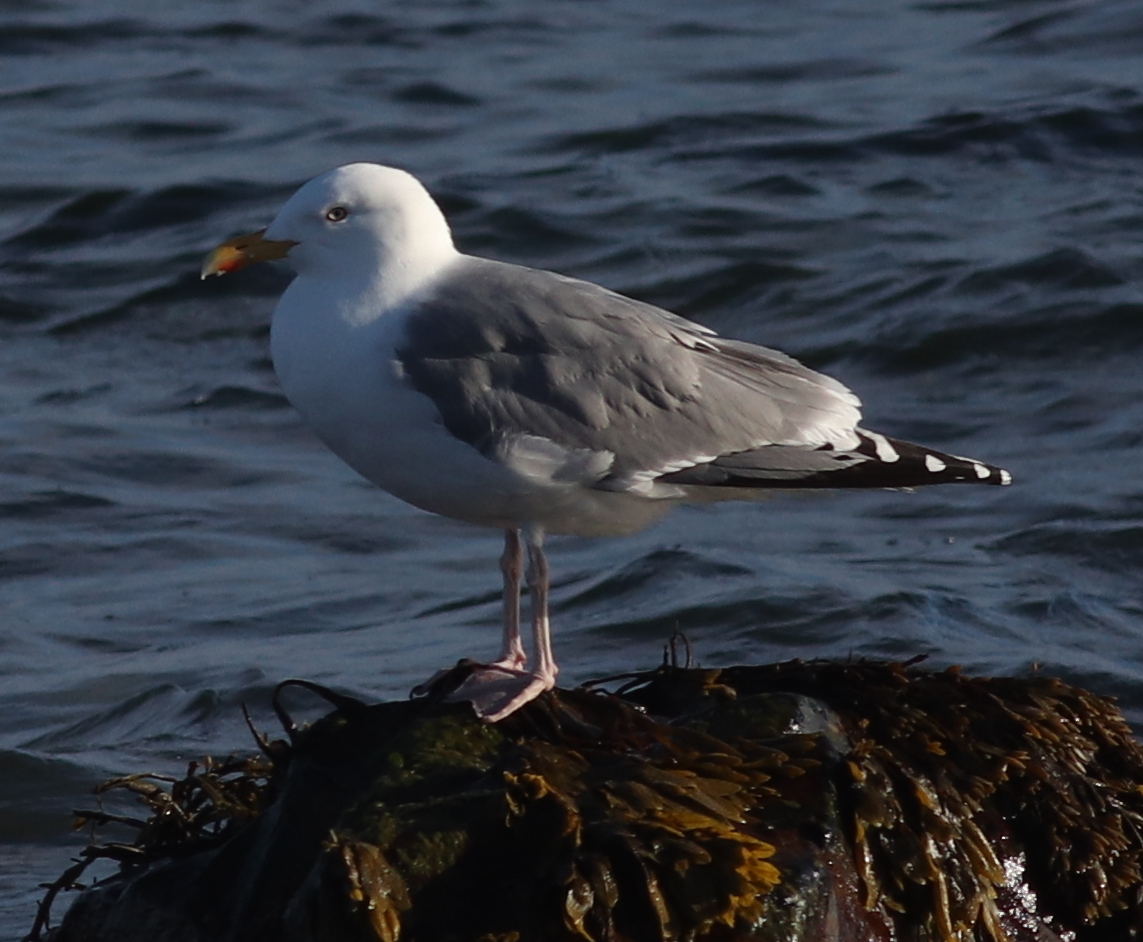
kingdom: Animalia
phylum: Chordata
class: Aves
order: Charadriiformes
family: Laridae
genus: Larus
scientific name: Larus argentatus
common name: Herring gull
